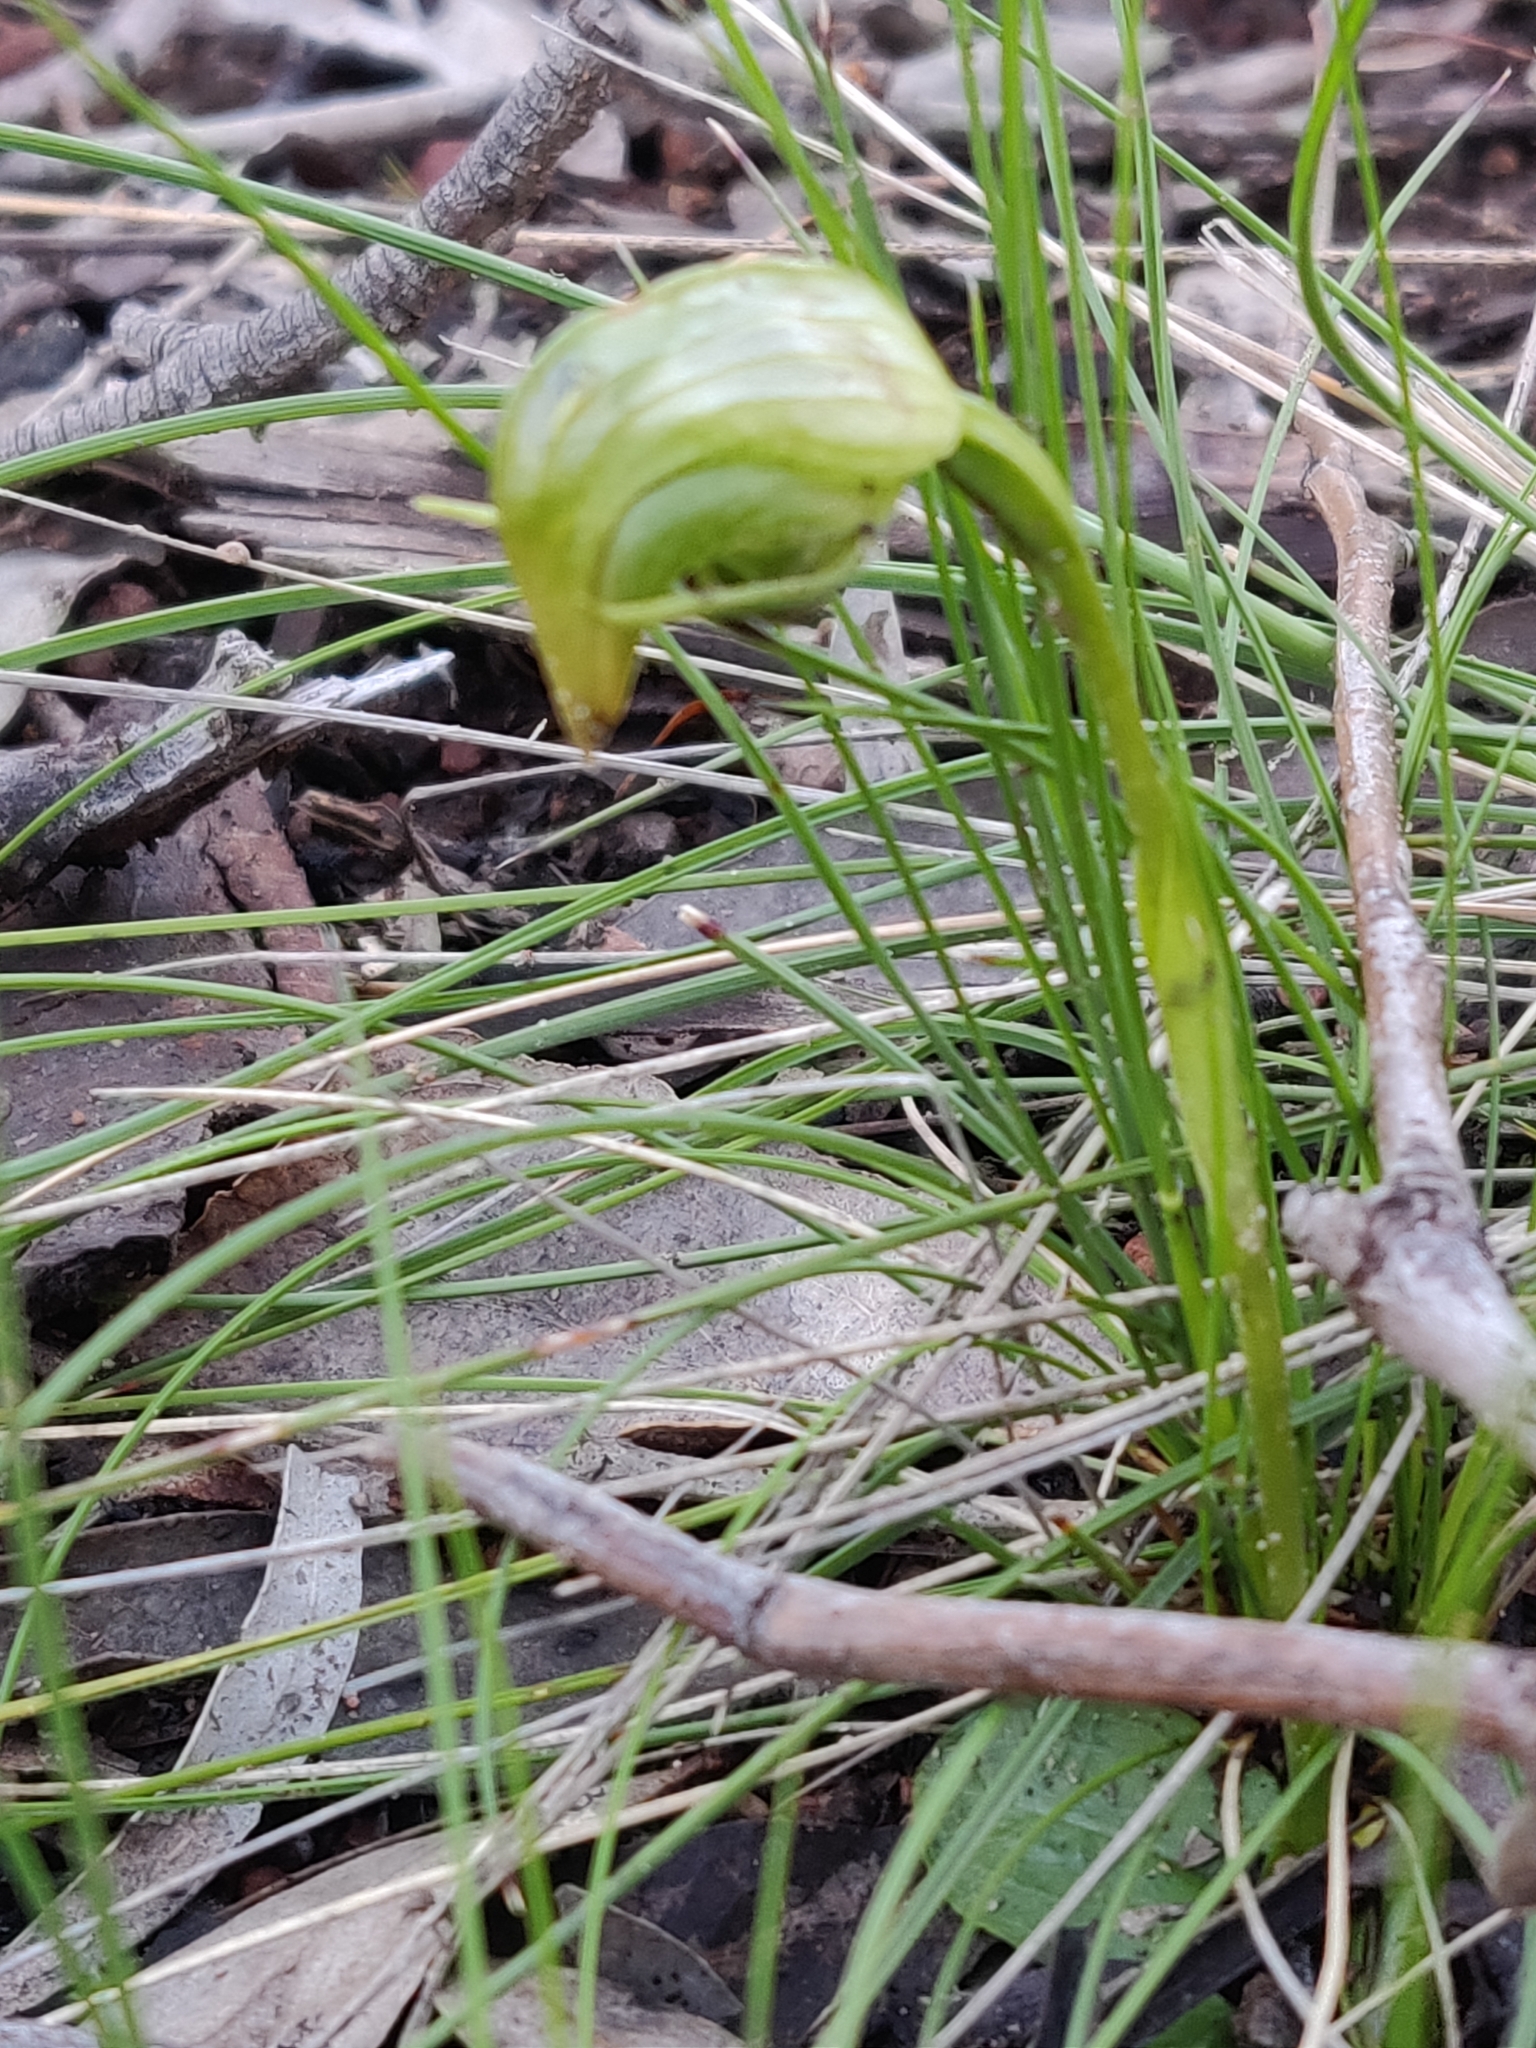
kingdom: Plantae
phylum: Tracheophyta
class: Liliopsida
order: Asparagales
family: Orchidaceae
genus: Pterostylis
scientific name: Pterostylis nutans
